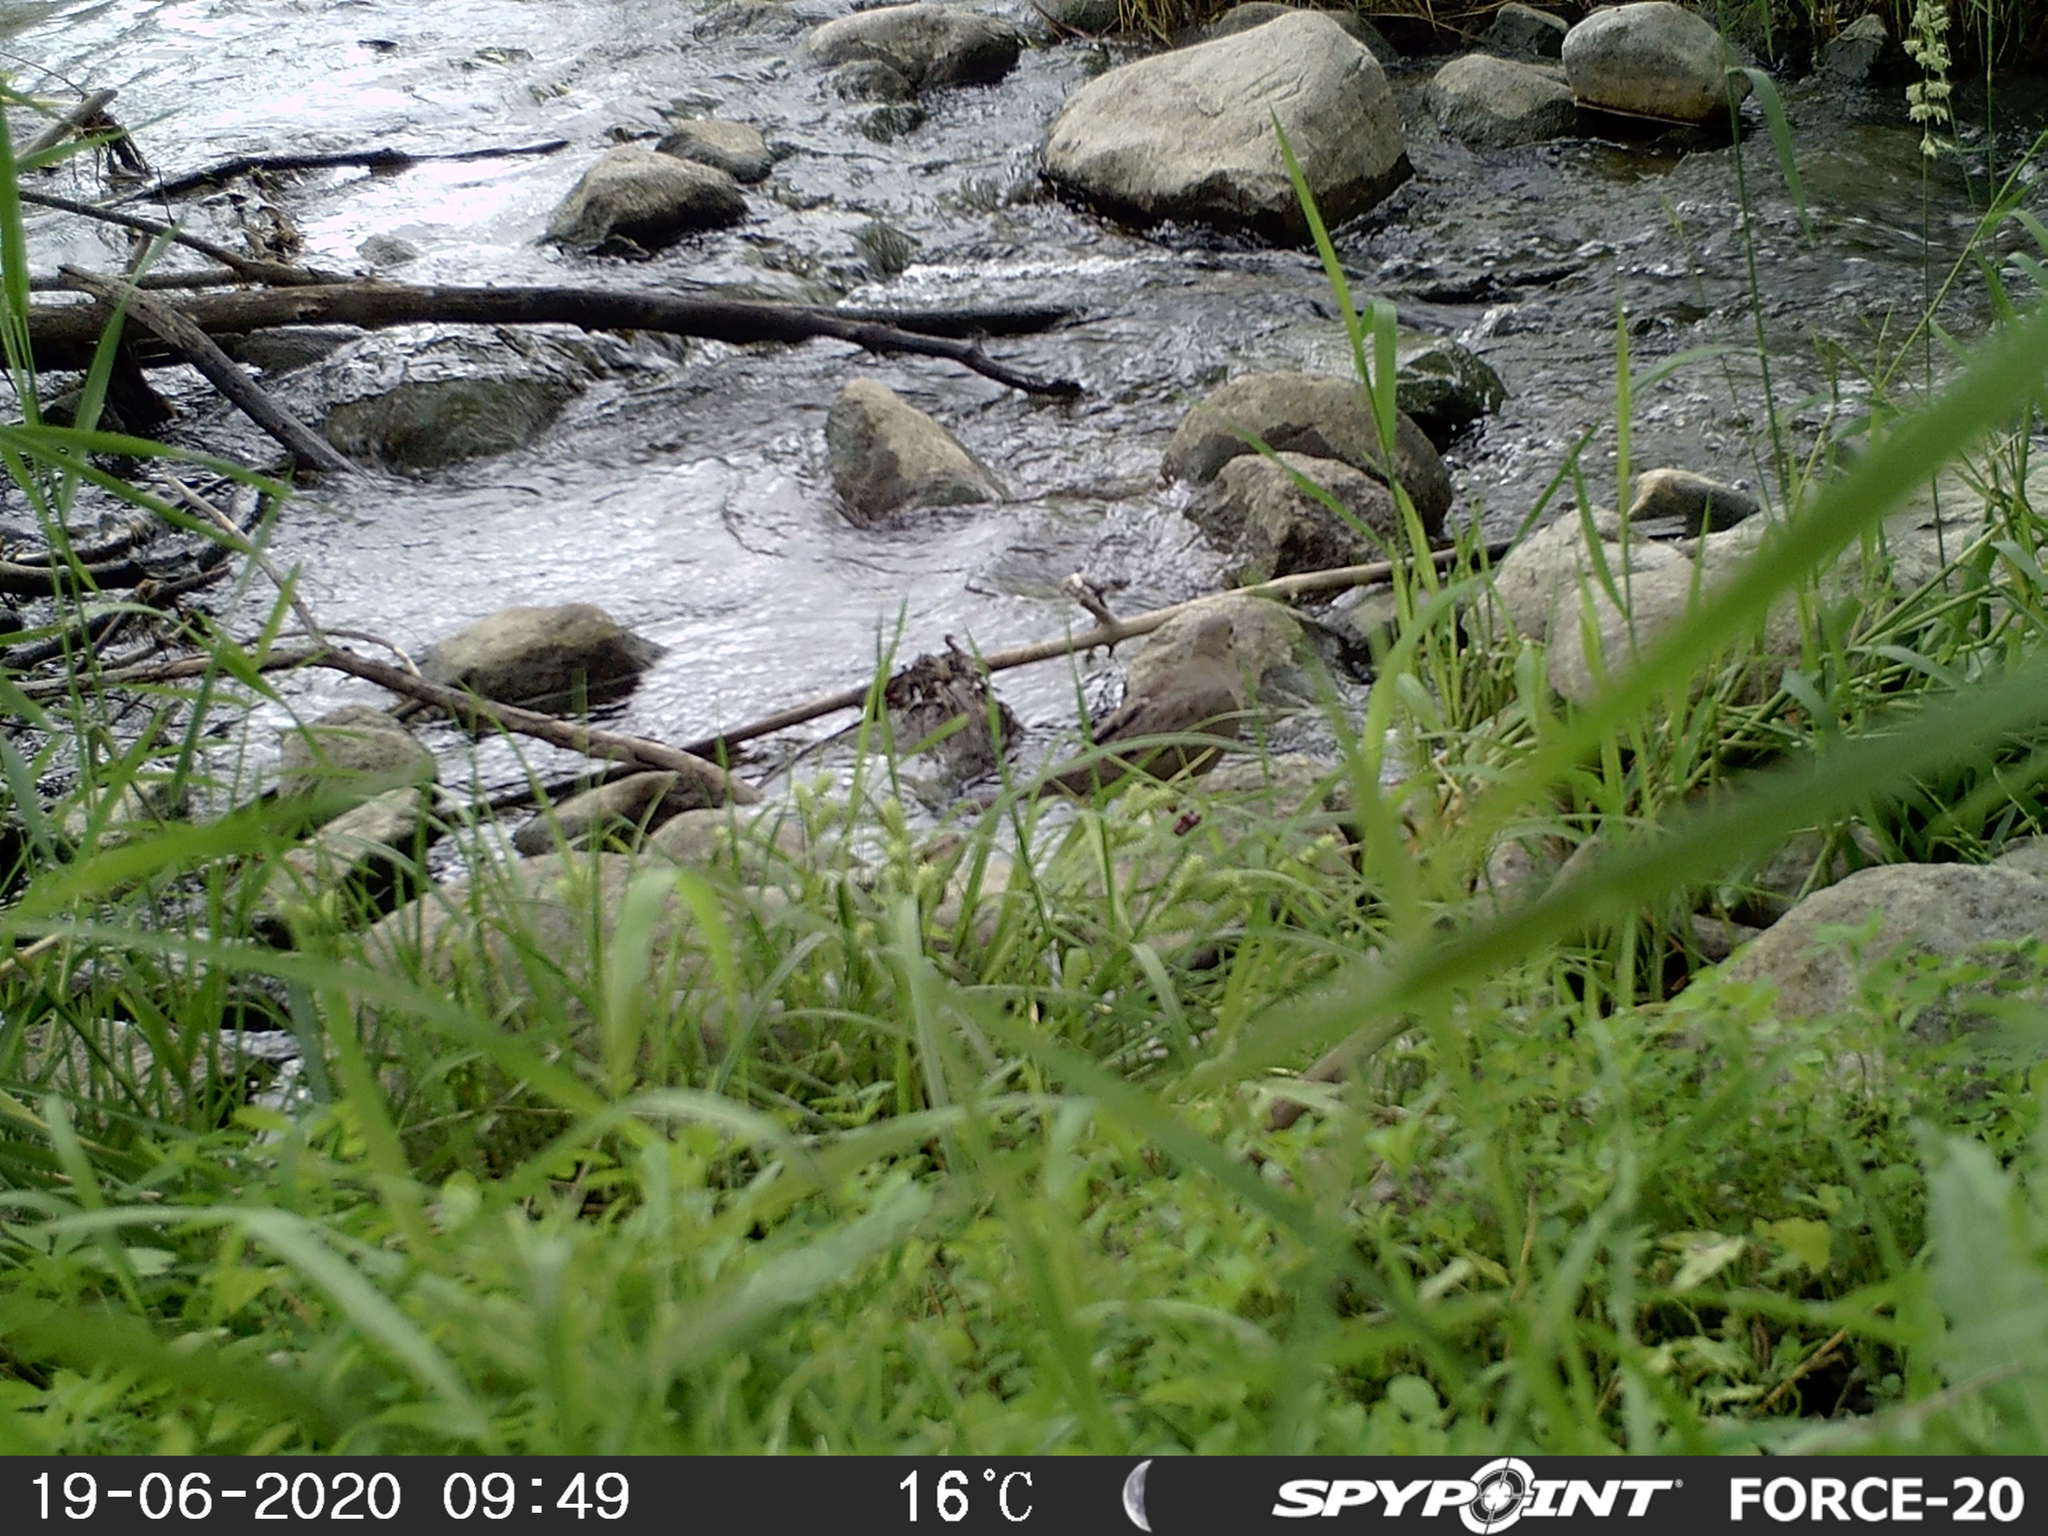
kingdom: Animalia
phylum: Chordata
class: Aves
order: Columbiformes
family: Columbidae
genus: Zenaida
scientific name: Zenaida macroura
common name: Mourning dove
